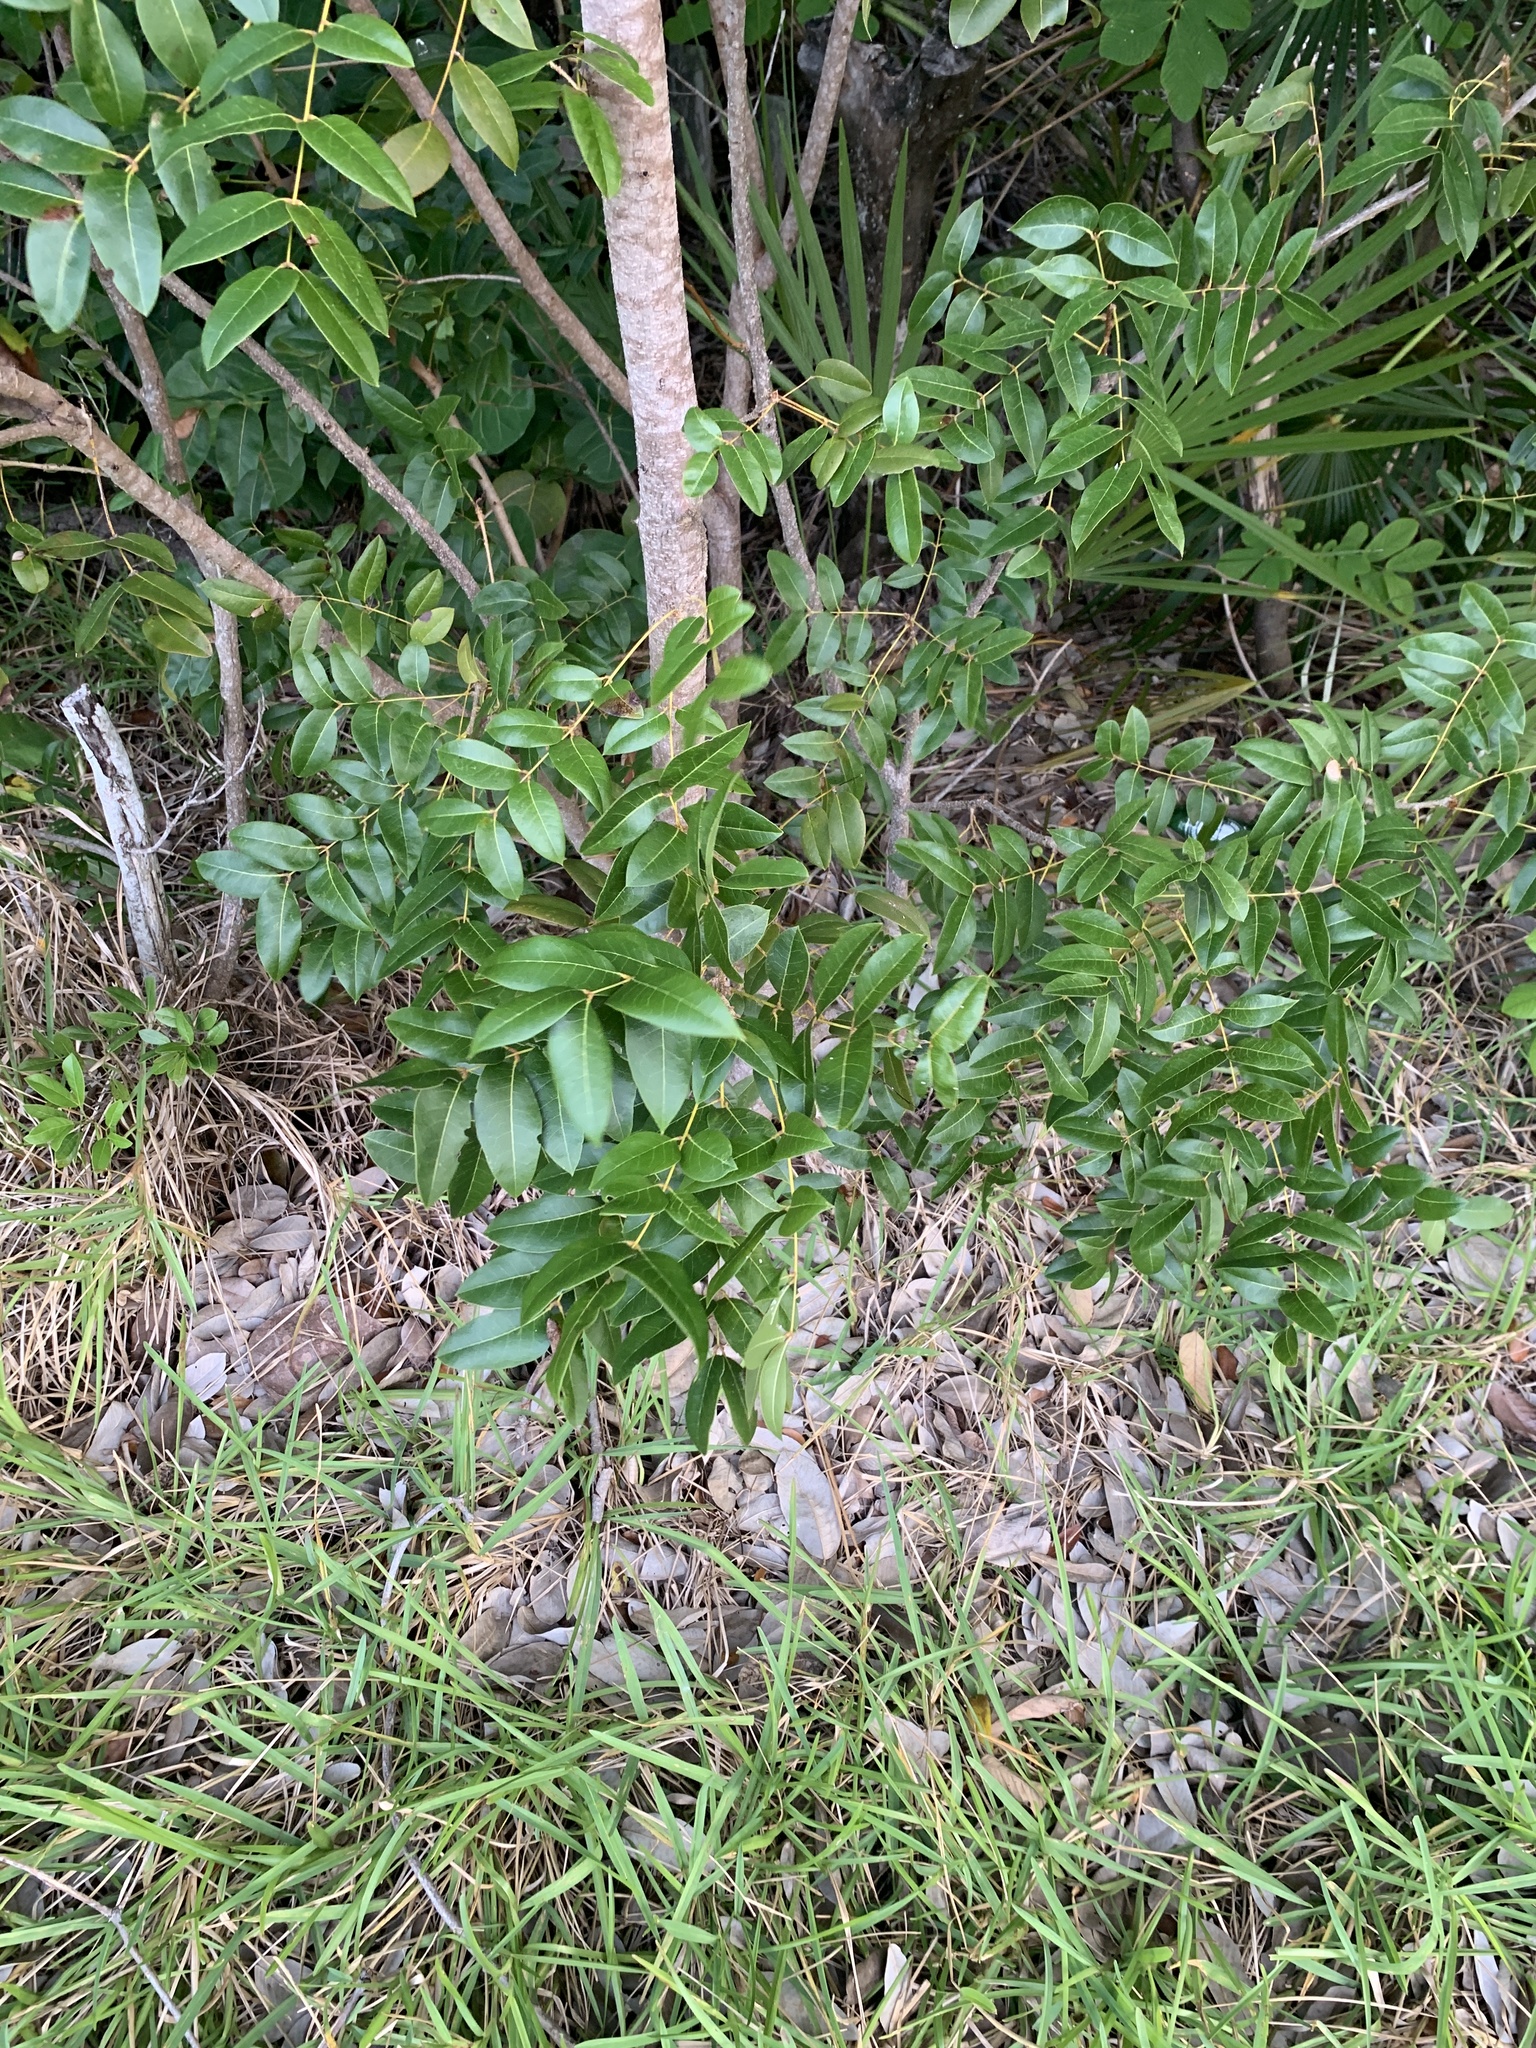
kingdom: Plantae
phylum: Tracheophyta
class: Magnoliopsida
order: Sapindales
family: Meliaceae
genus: Swietenia
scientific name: Swietenia mahagoni
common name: West indian mahogany
